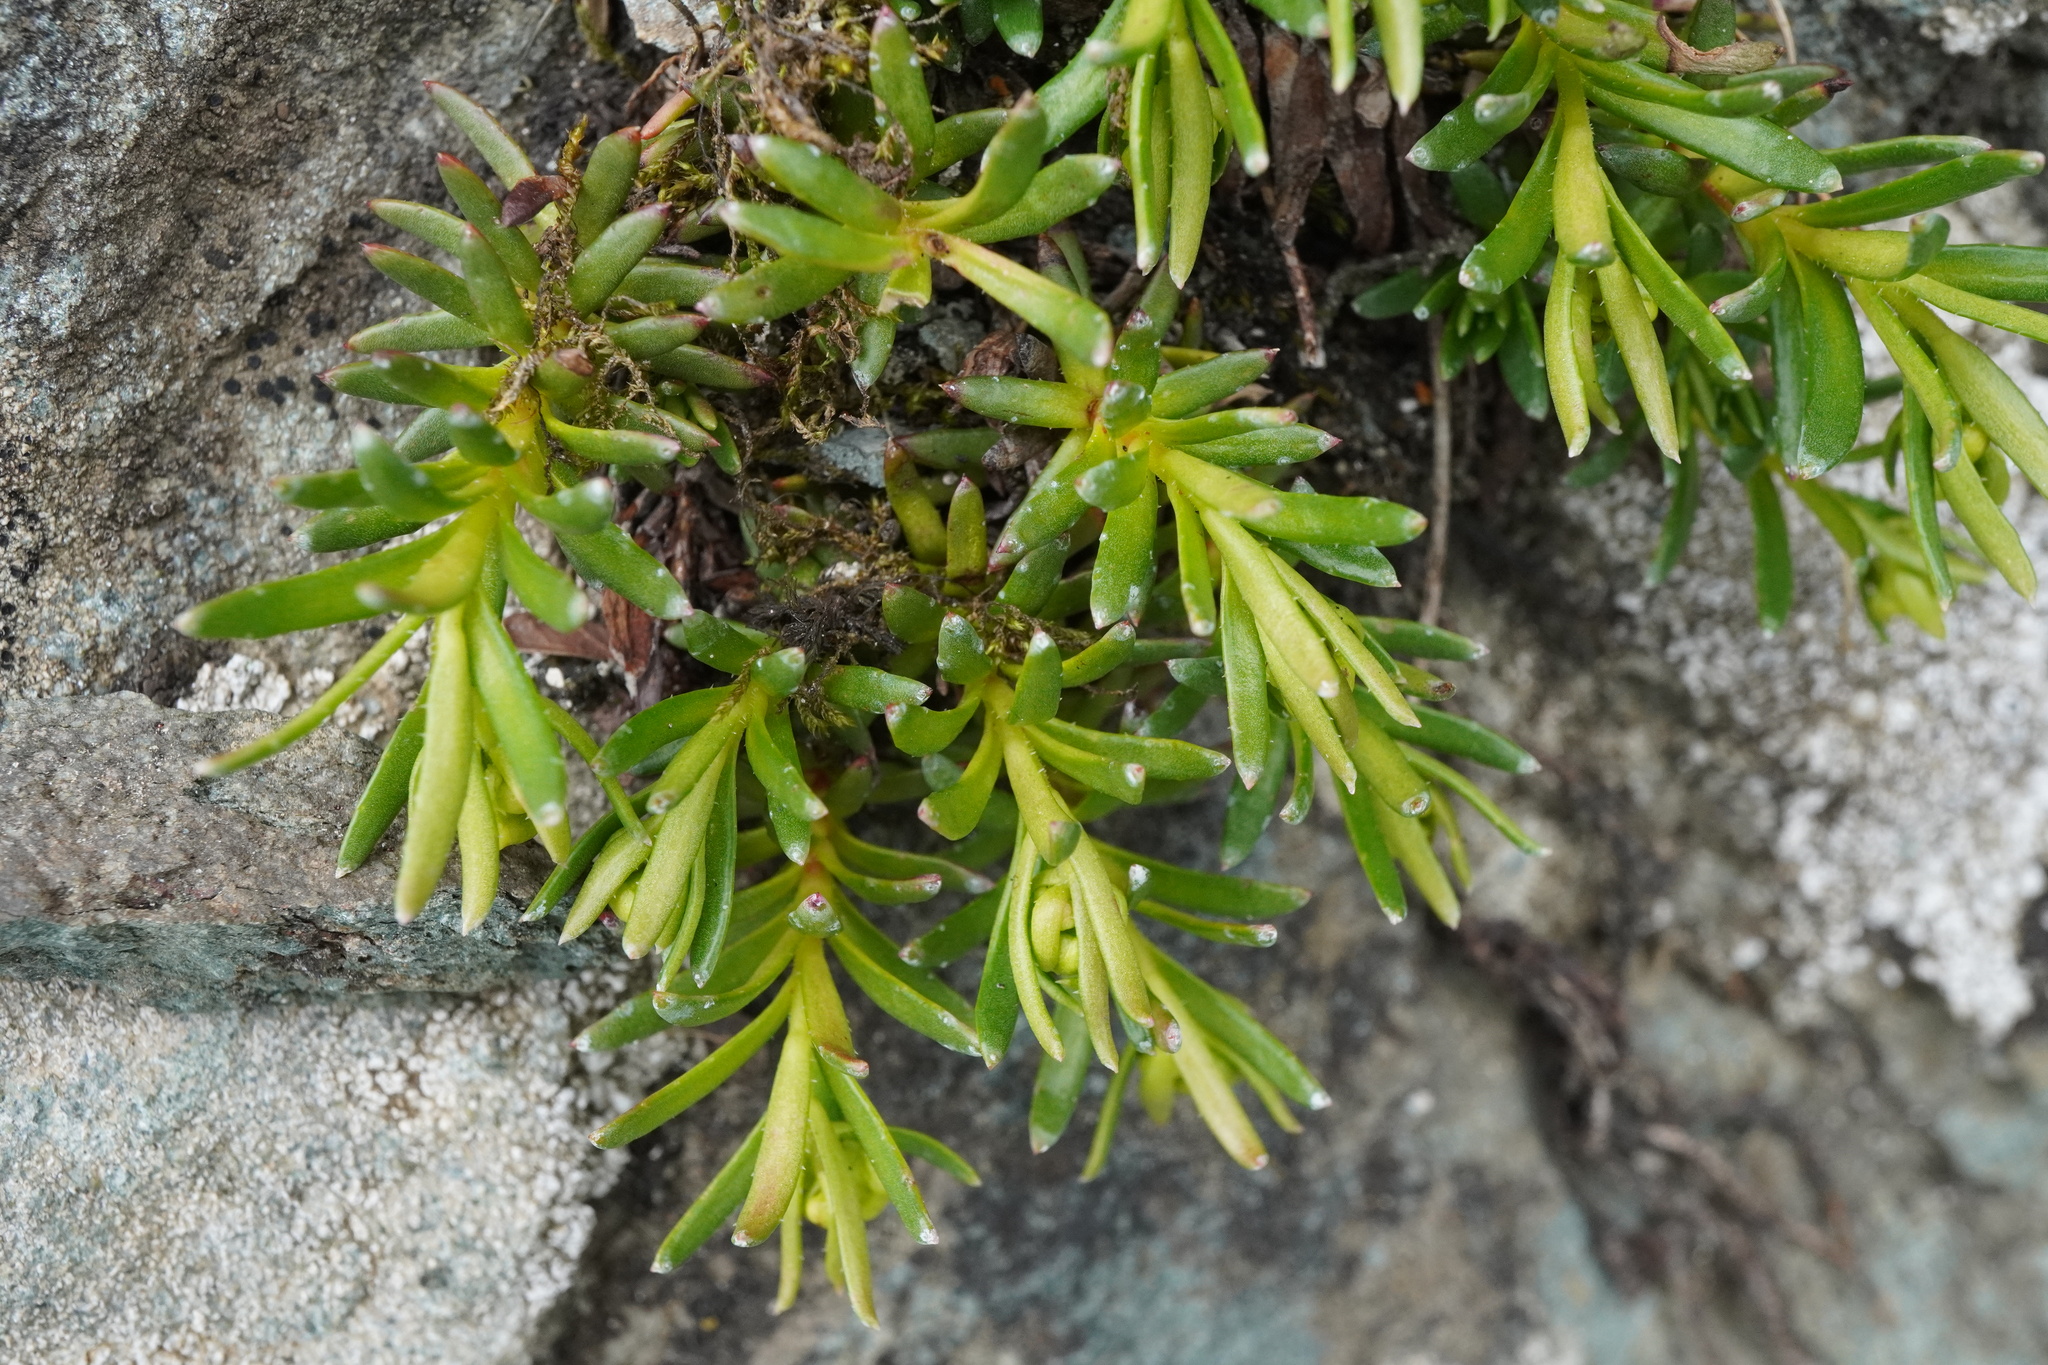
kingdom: Plantae
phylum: Tracheophyta
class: Magnoliopsida
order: Saxifragales
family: Saxifragaceae
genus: Saxifraga
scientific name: Saxifraga aizoides
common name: Yellow mountain saxifrage
